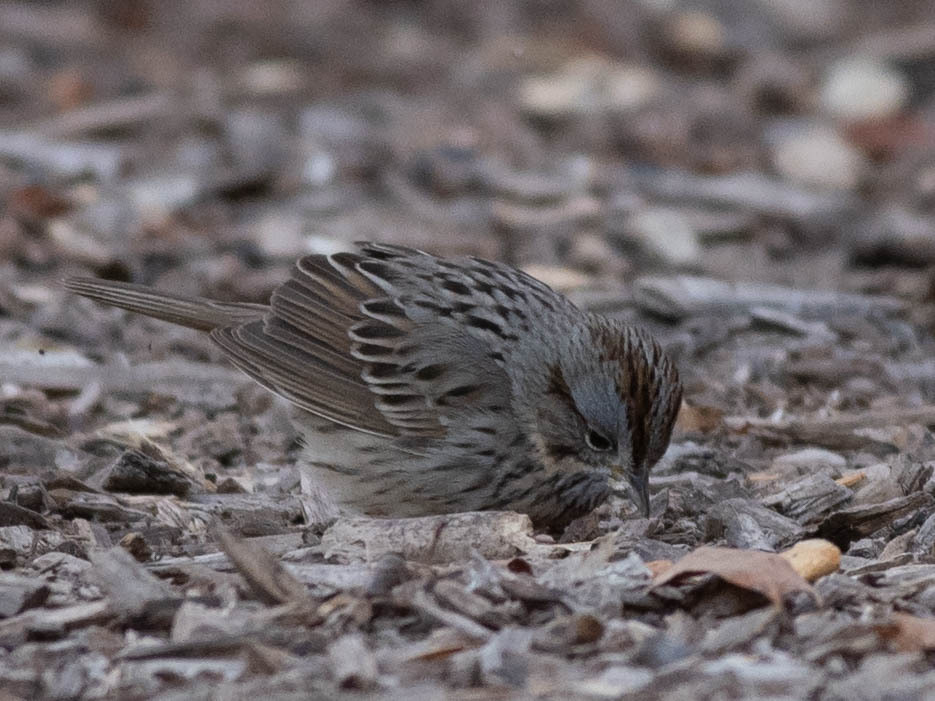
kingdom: Animalia
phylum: Chordata
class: Aves
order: Passeriformes
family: Passerellidae
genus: Melospiza
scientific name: Melospiza lincolnii
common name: Lincoln's sparrow
